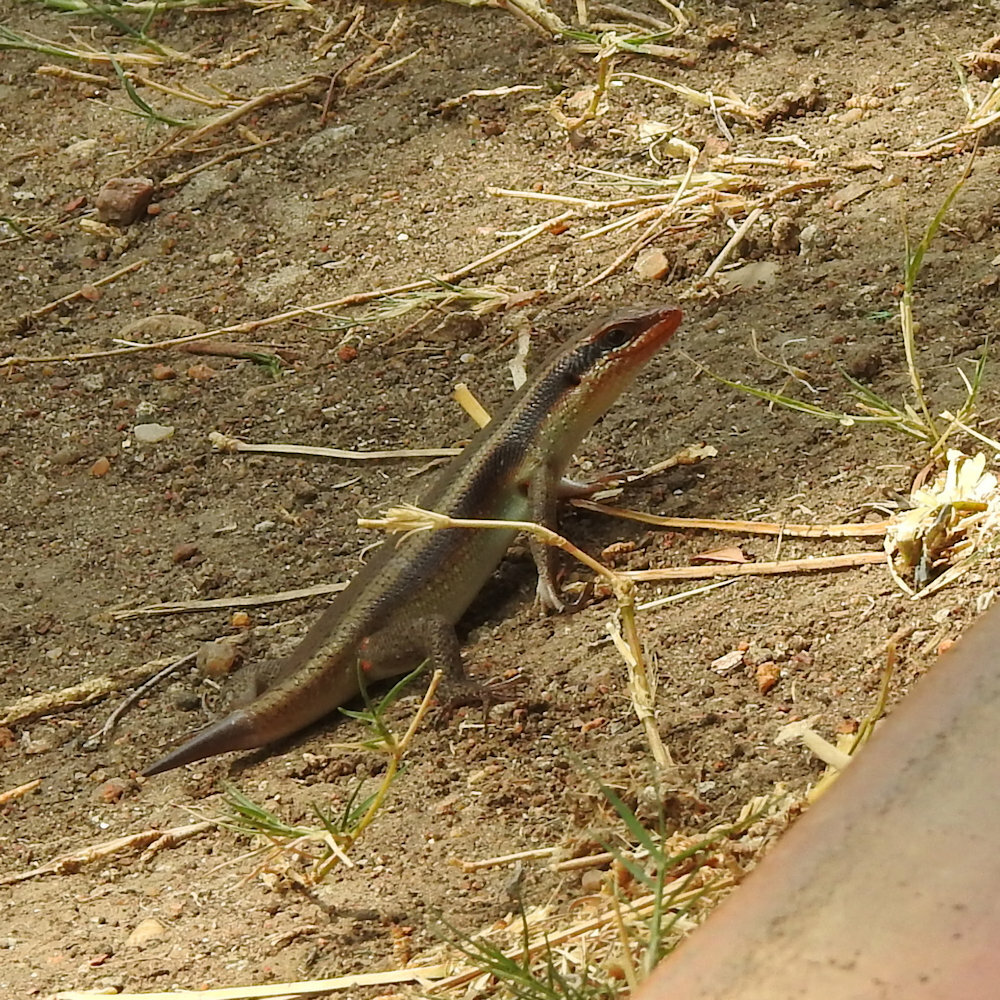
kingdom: Animalia
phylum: Chordata
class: Squamata
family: Scincidae
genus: Trachylepis
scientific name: Trachylepis wahlbergii
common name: Wahlberg’s striped skink
